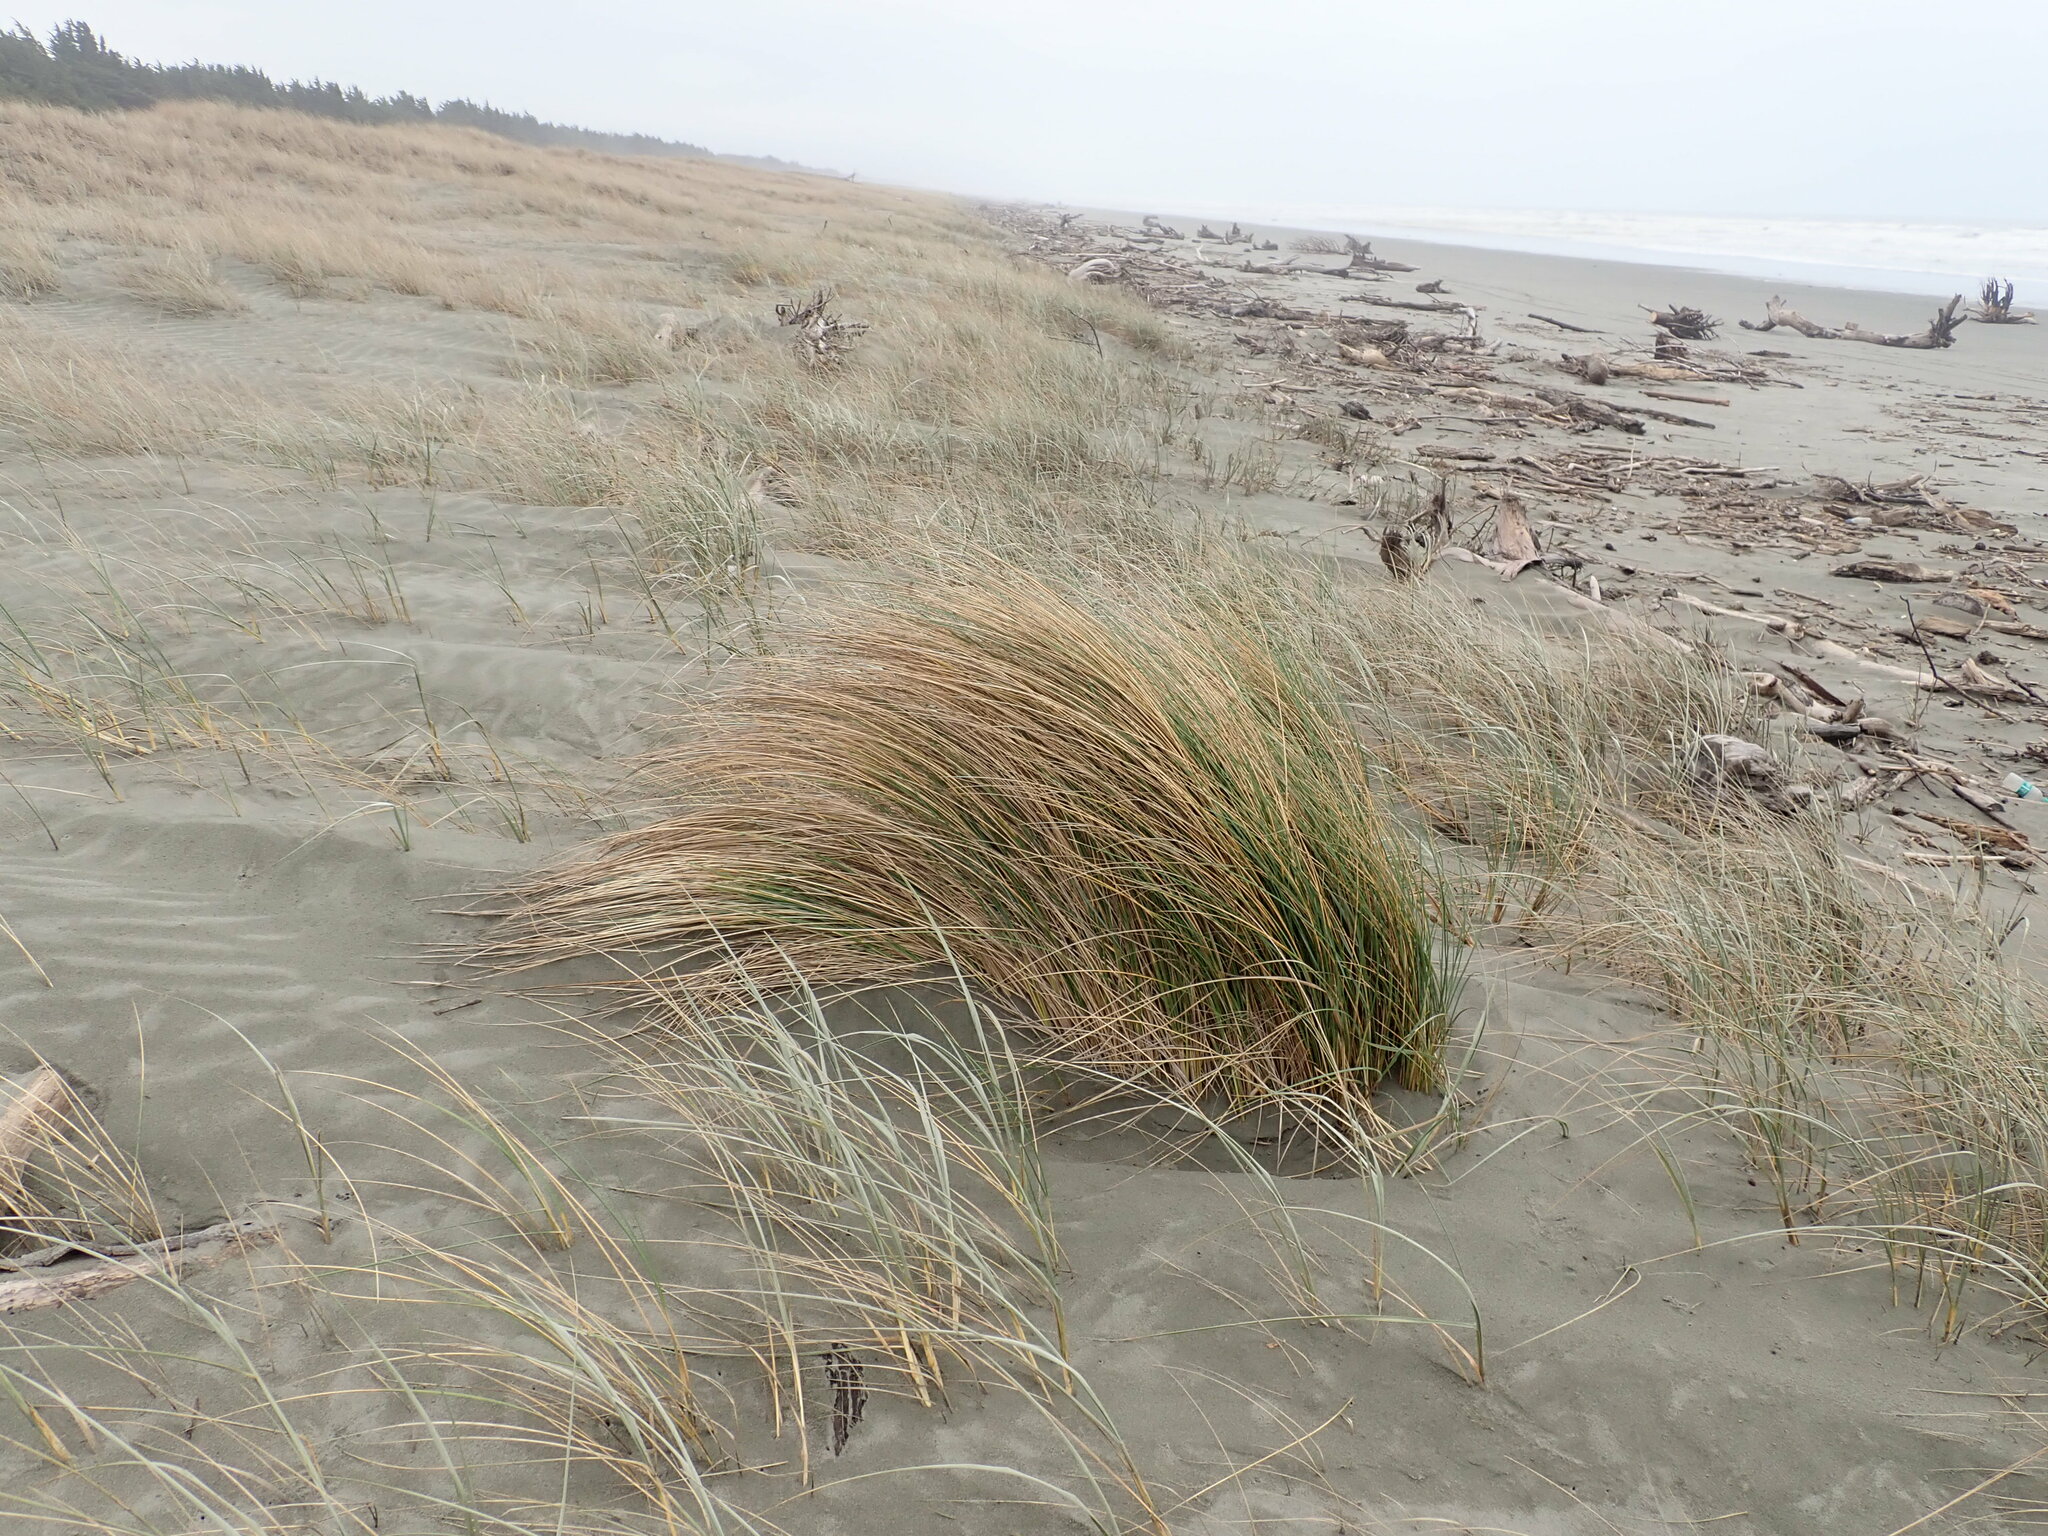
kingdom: Plantae
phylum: Tracheophyta
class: Liliopsida
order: Poales
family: Poaceae
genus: Calamagrostis
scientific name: Calamagrostis arenaria
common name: European beachgrass
